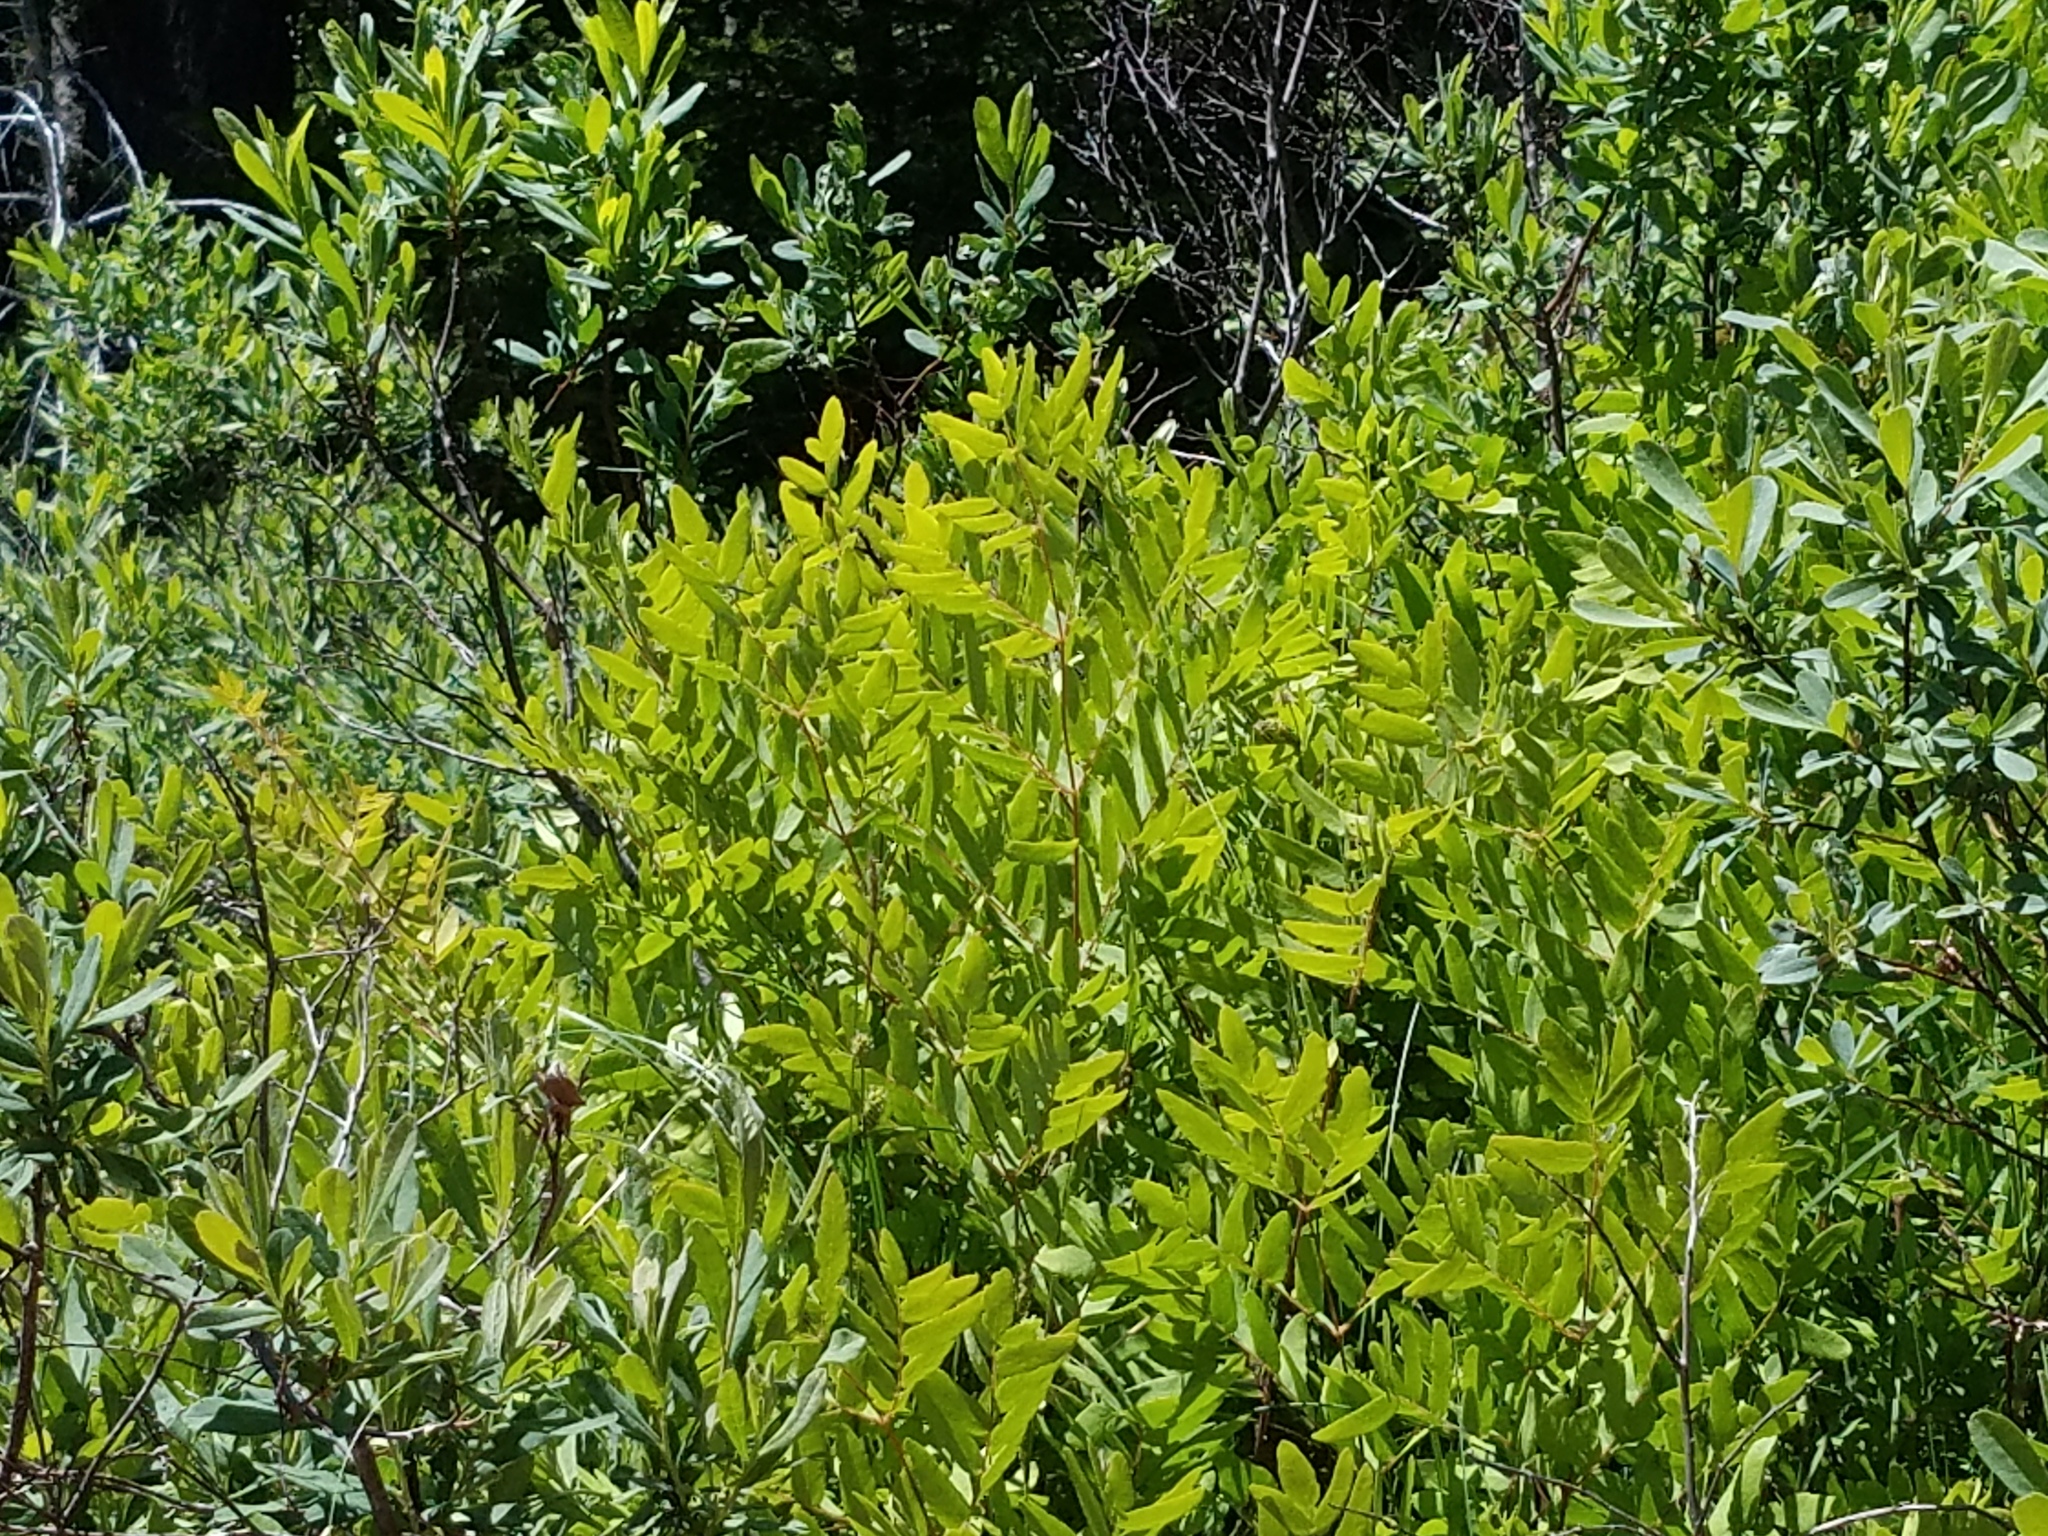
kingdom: Plantae
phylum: Tracheophyta
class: Polypodiopsida
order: Osmundales
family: Osmundaceae
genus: Osmunda
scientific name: Osmunda spectabilis
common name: American royal fern
